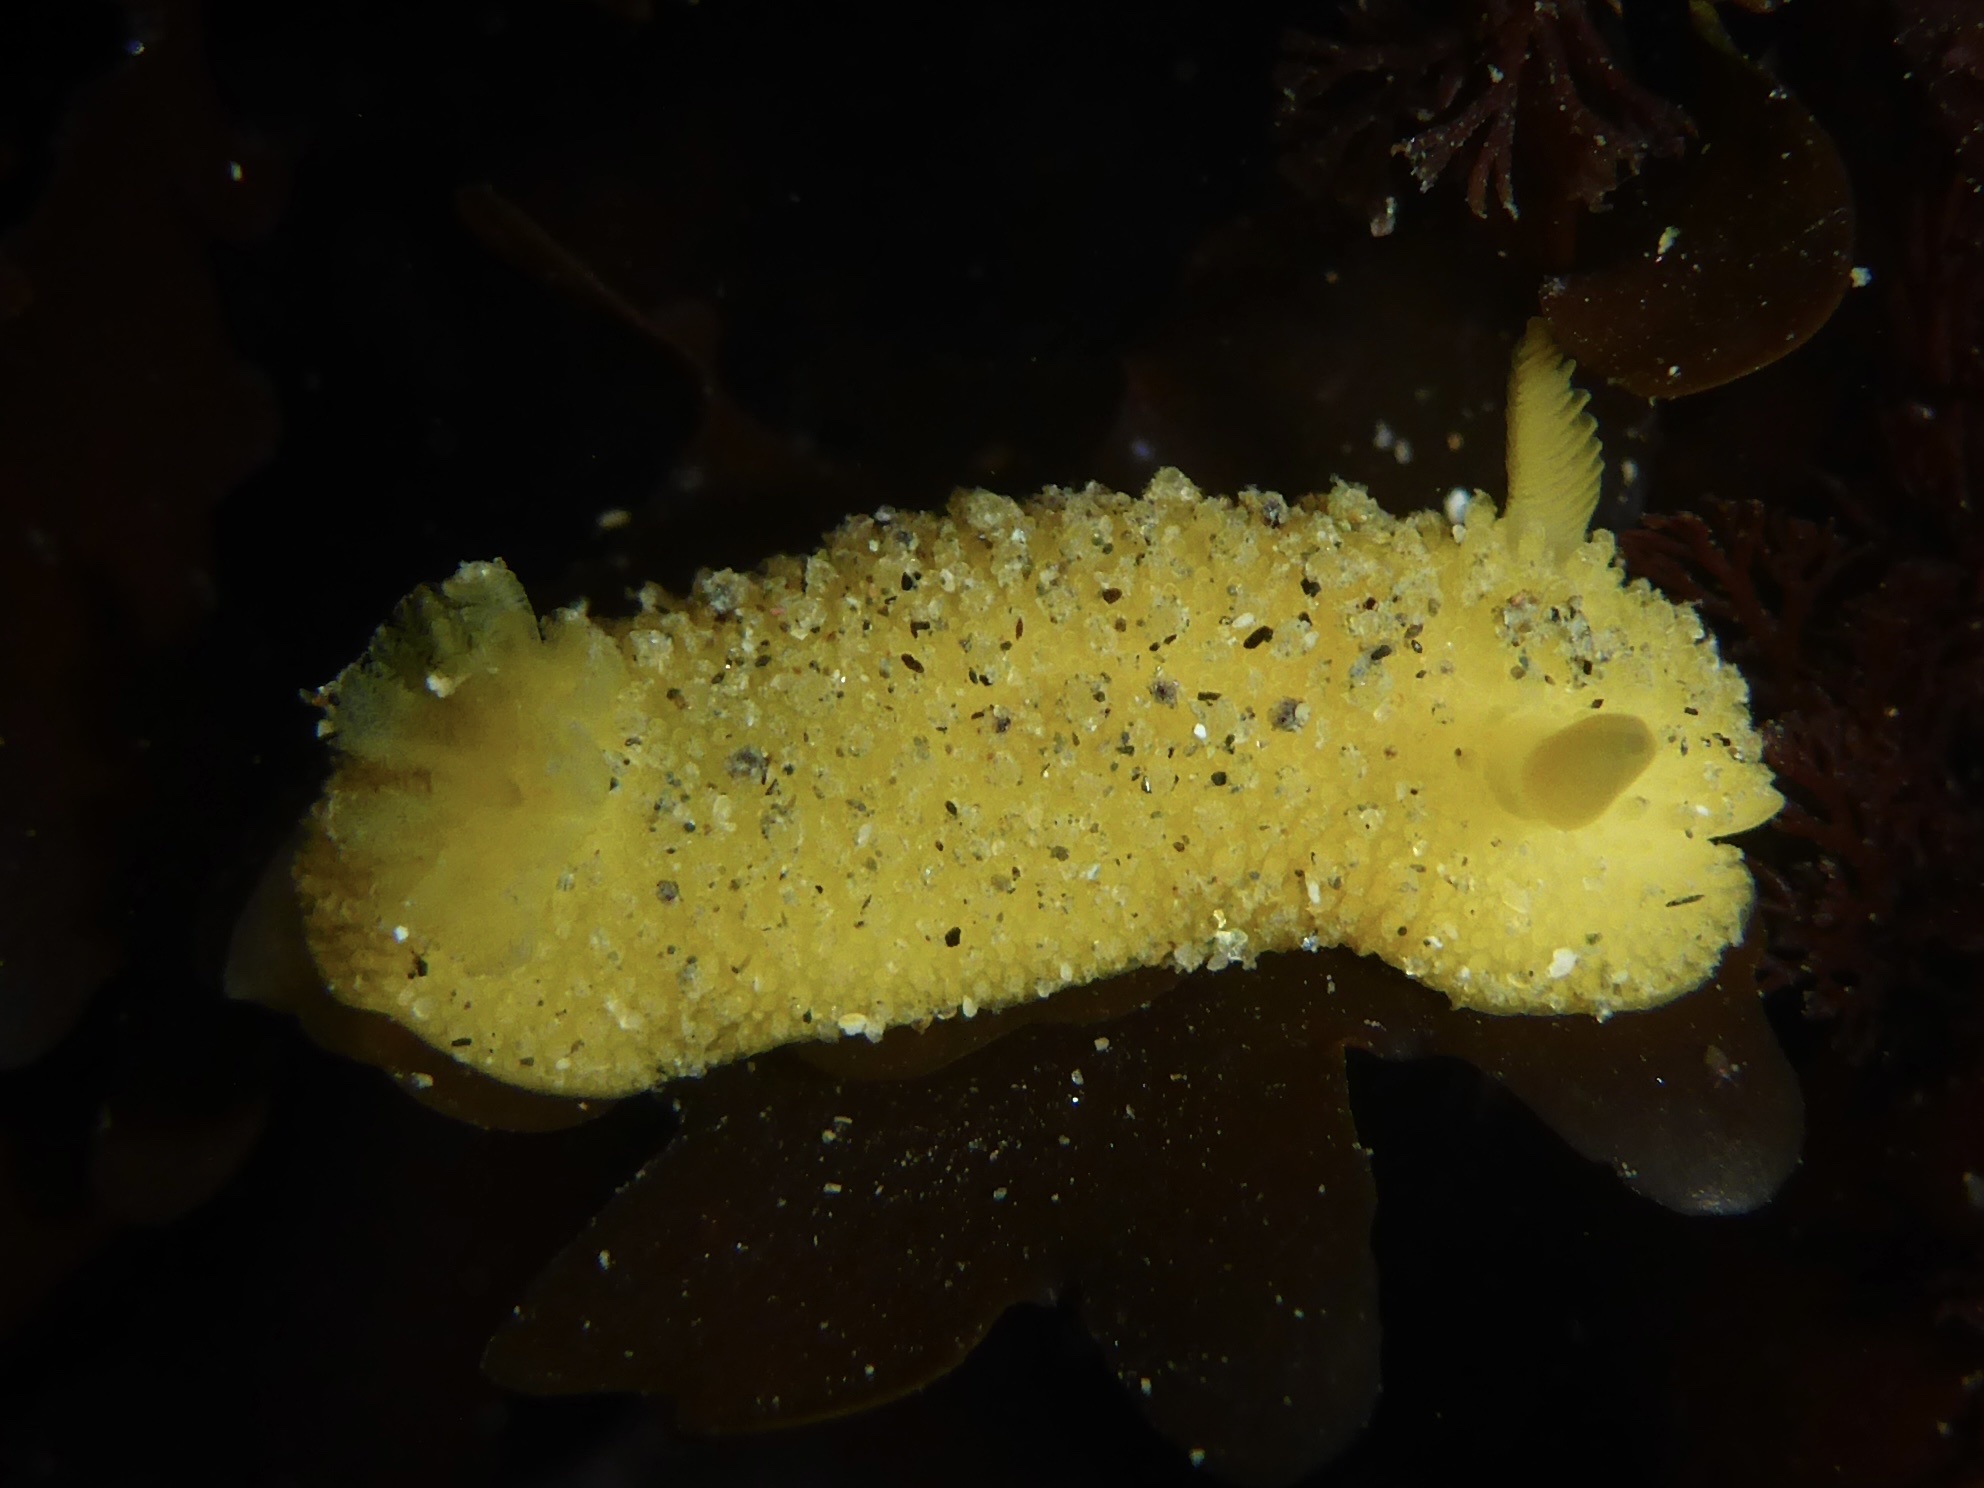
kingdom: Animalia
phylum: Mollusca
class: Gastropoda
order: Nudibranchia
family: Dorididae
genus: Doris
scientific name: Doris montereyensis
